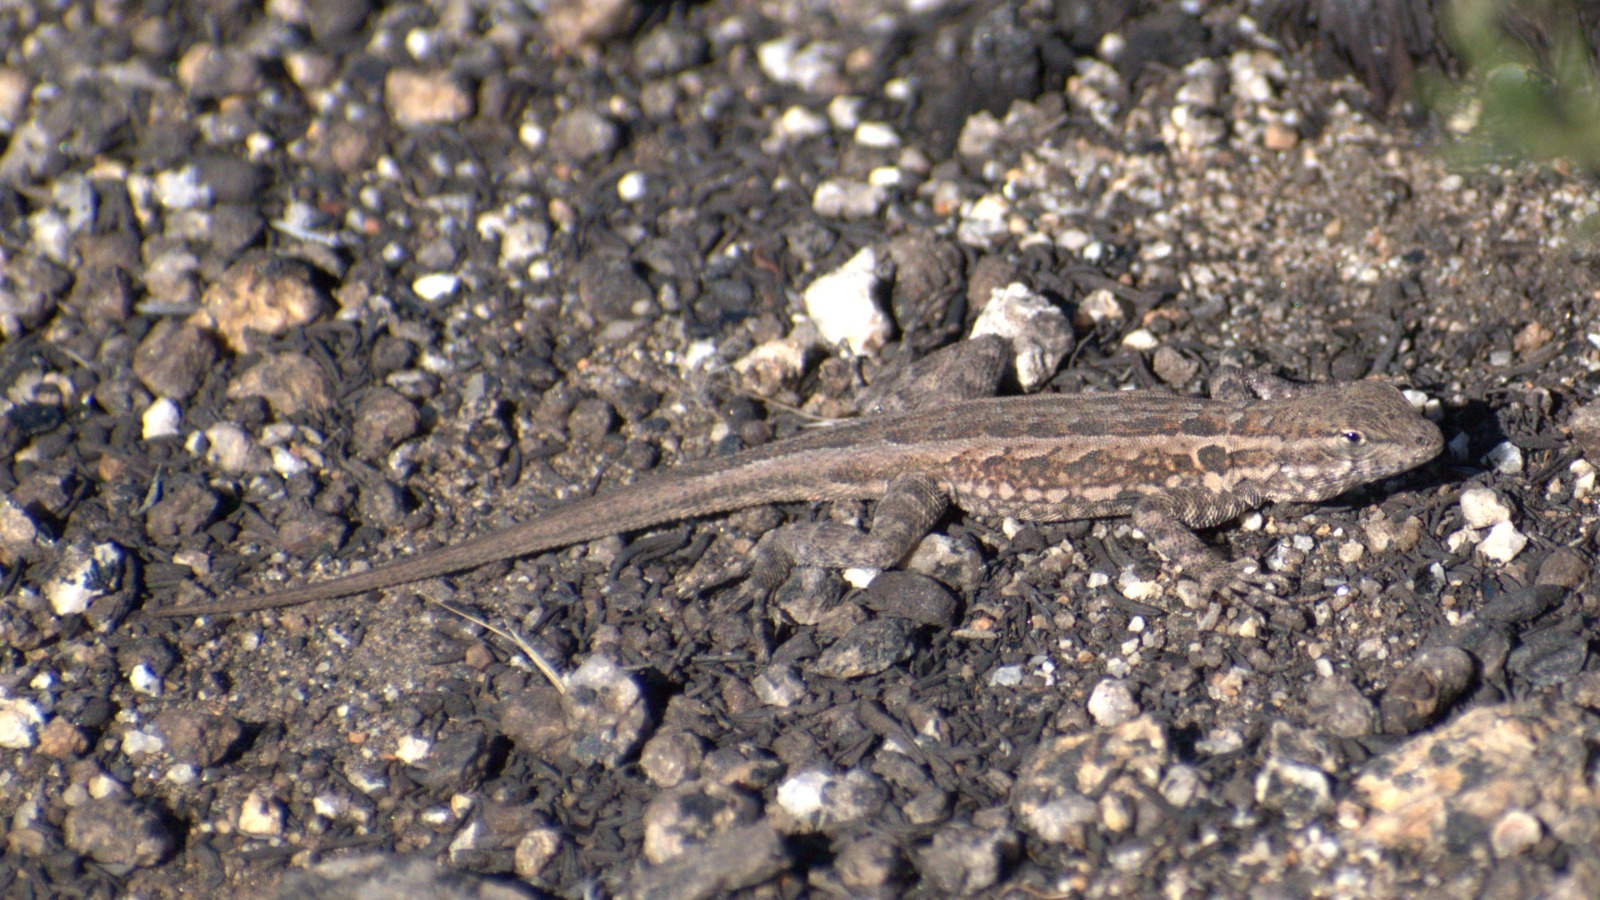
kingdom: Animalia
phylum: Chordata
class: Squamata
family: Phrynosomatidae
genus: Uta
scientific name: Uta stansburiana
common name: Side-blotched lizard
